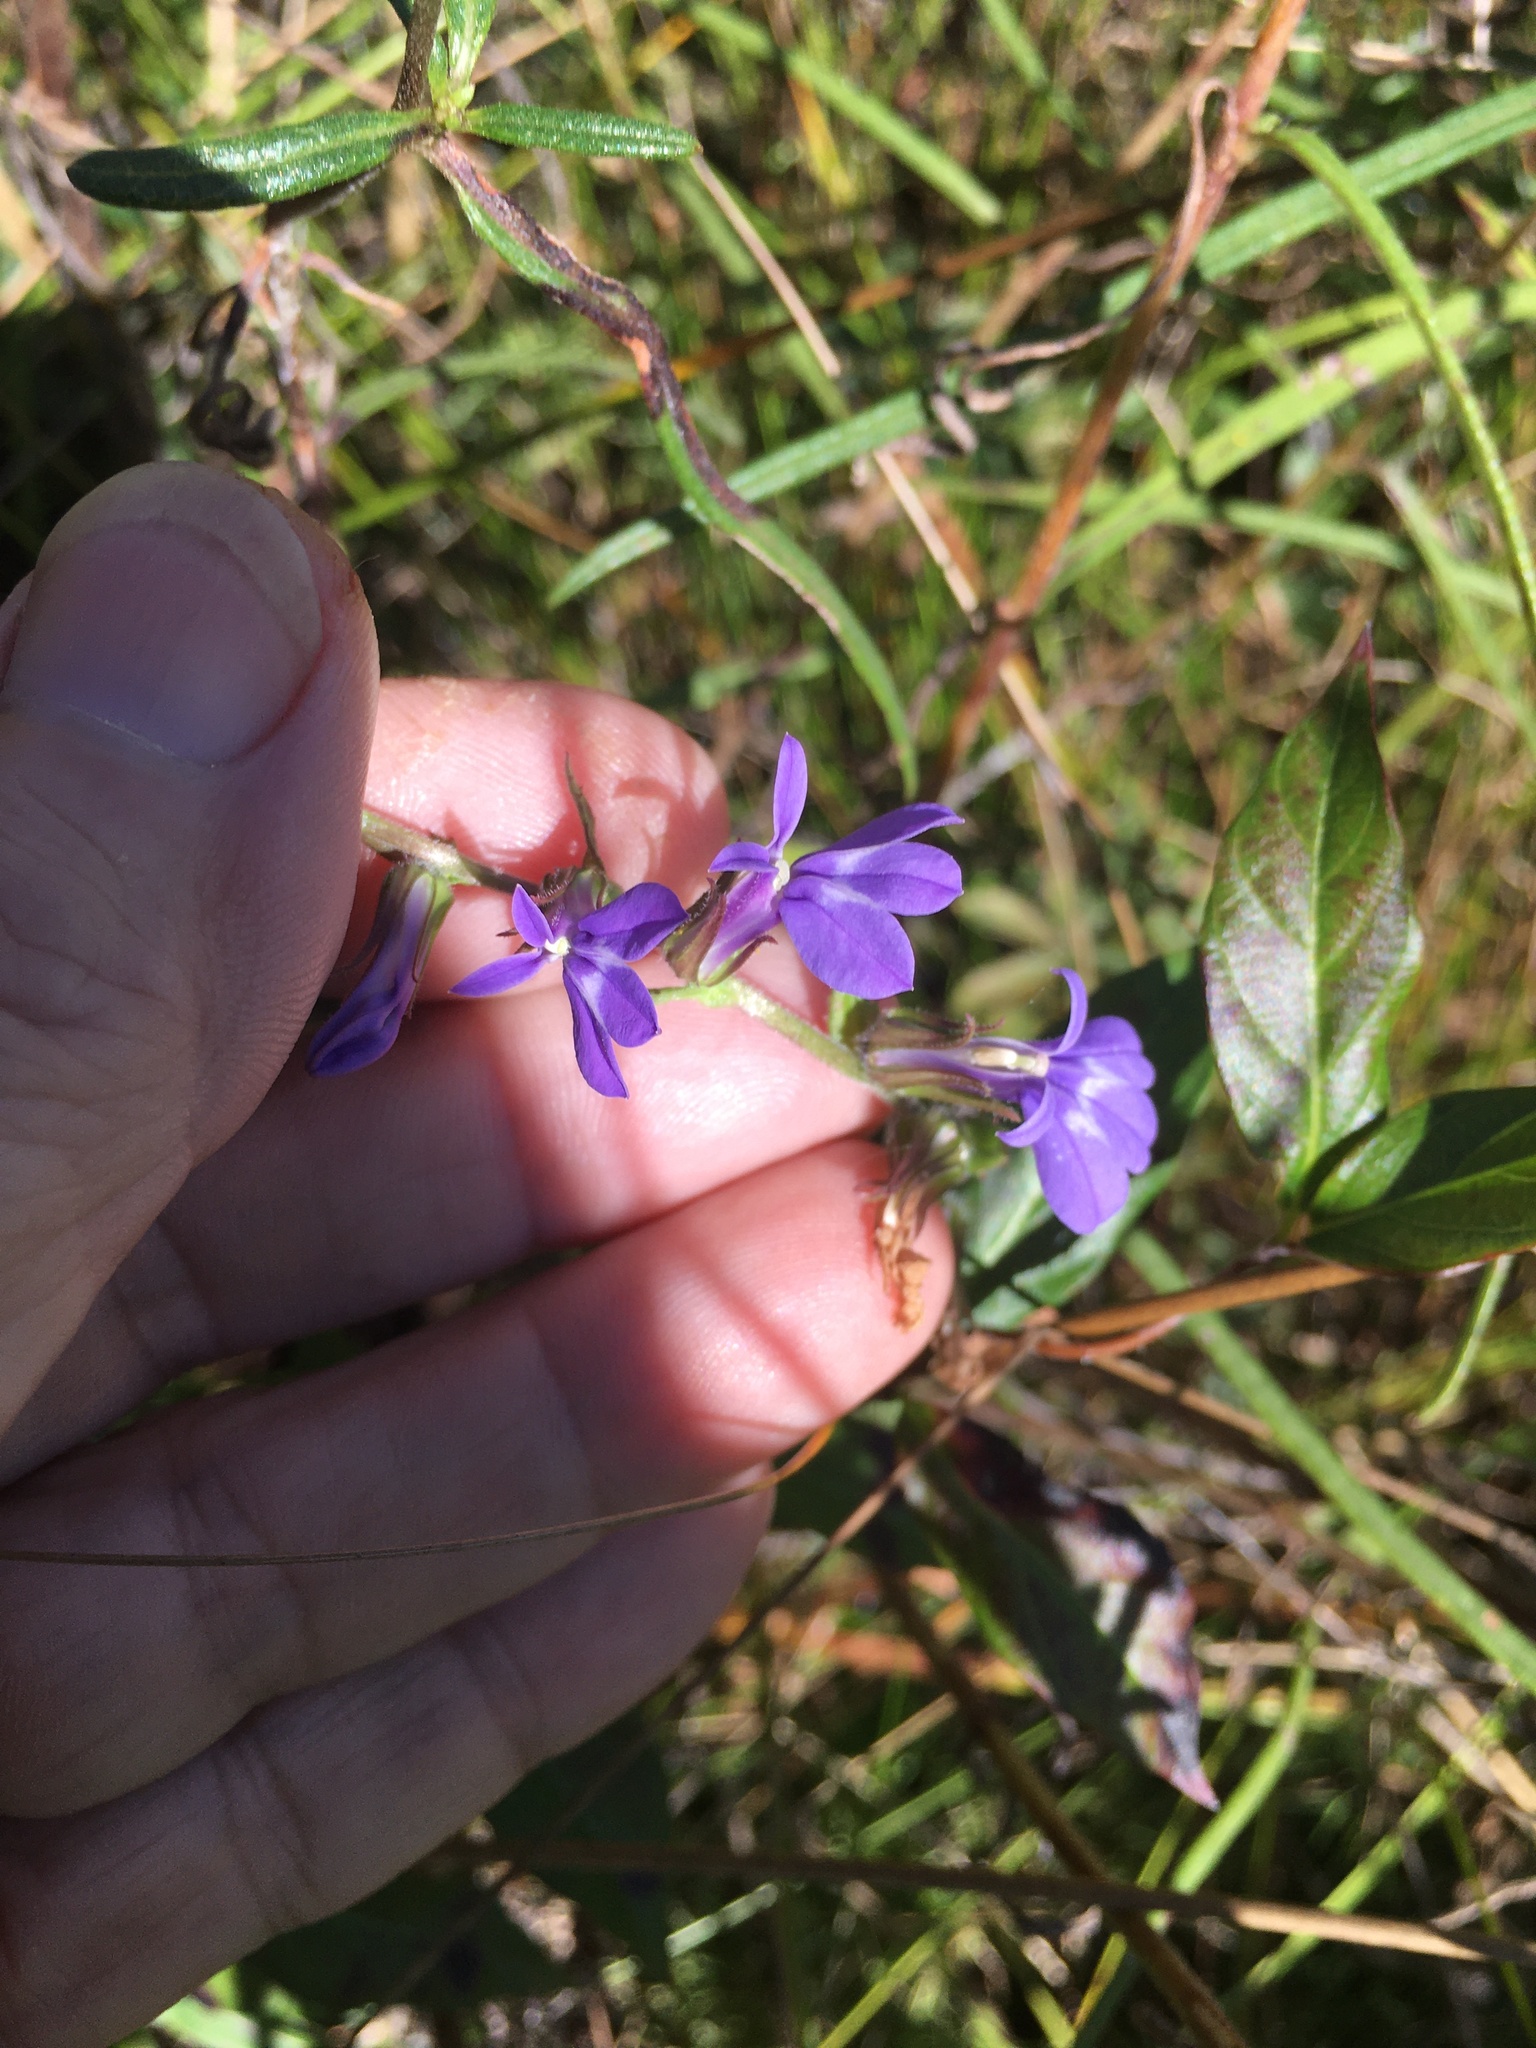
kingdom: Plantae
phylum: Tracheophyta
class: Magnoliopsida
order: Asterales
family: Campanulaceae
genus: Lobelia
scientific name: Lobelia puberula
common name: Purple dewdrop
